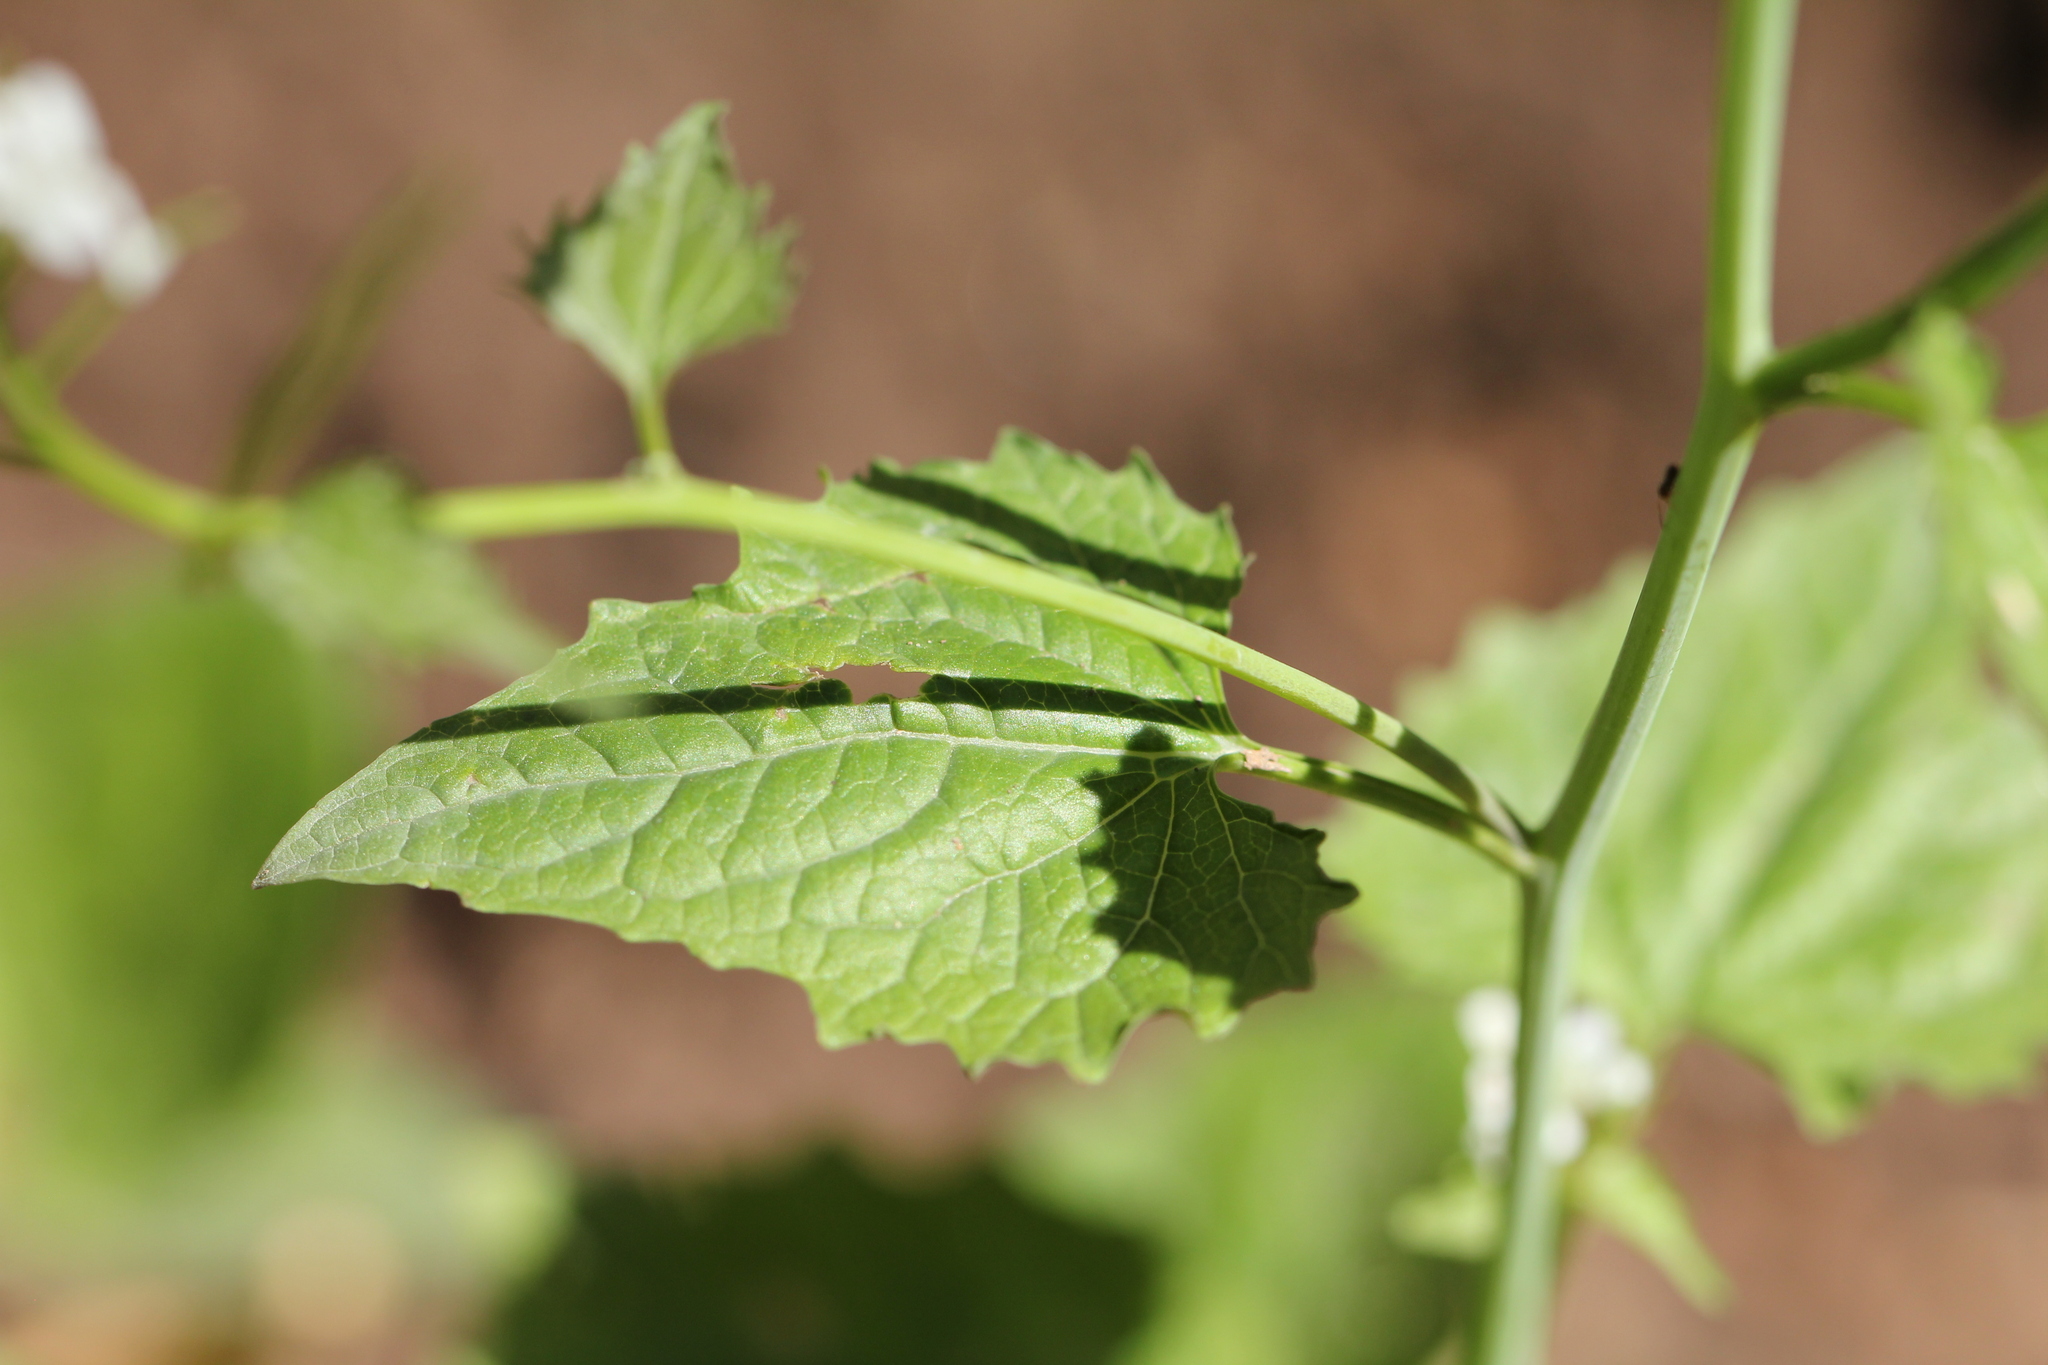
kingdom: Plantae
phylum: Tracheophyta
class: Magnoliopsida
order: Brassicales
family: Brassicaceae
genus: Alliaria
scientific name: Alliaria petiolata
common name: Garlic mustard
